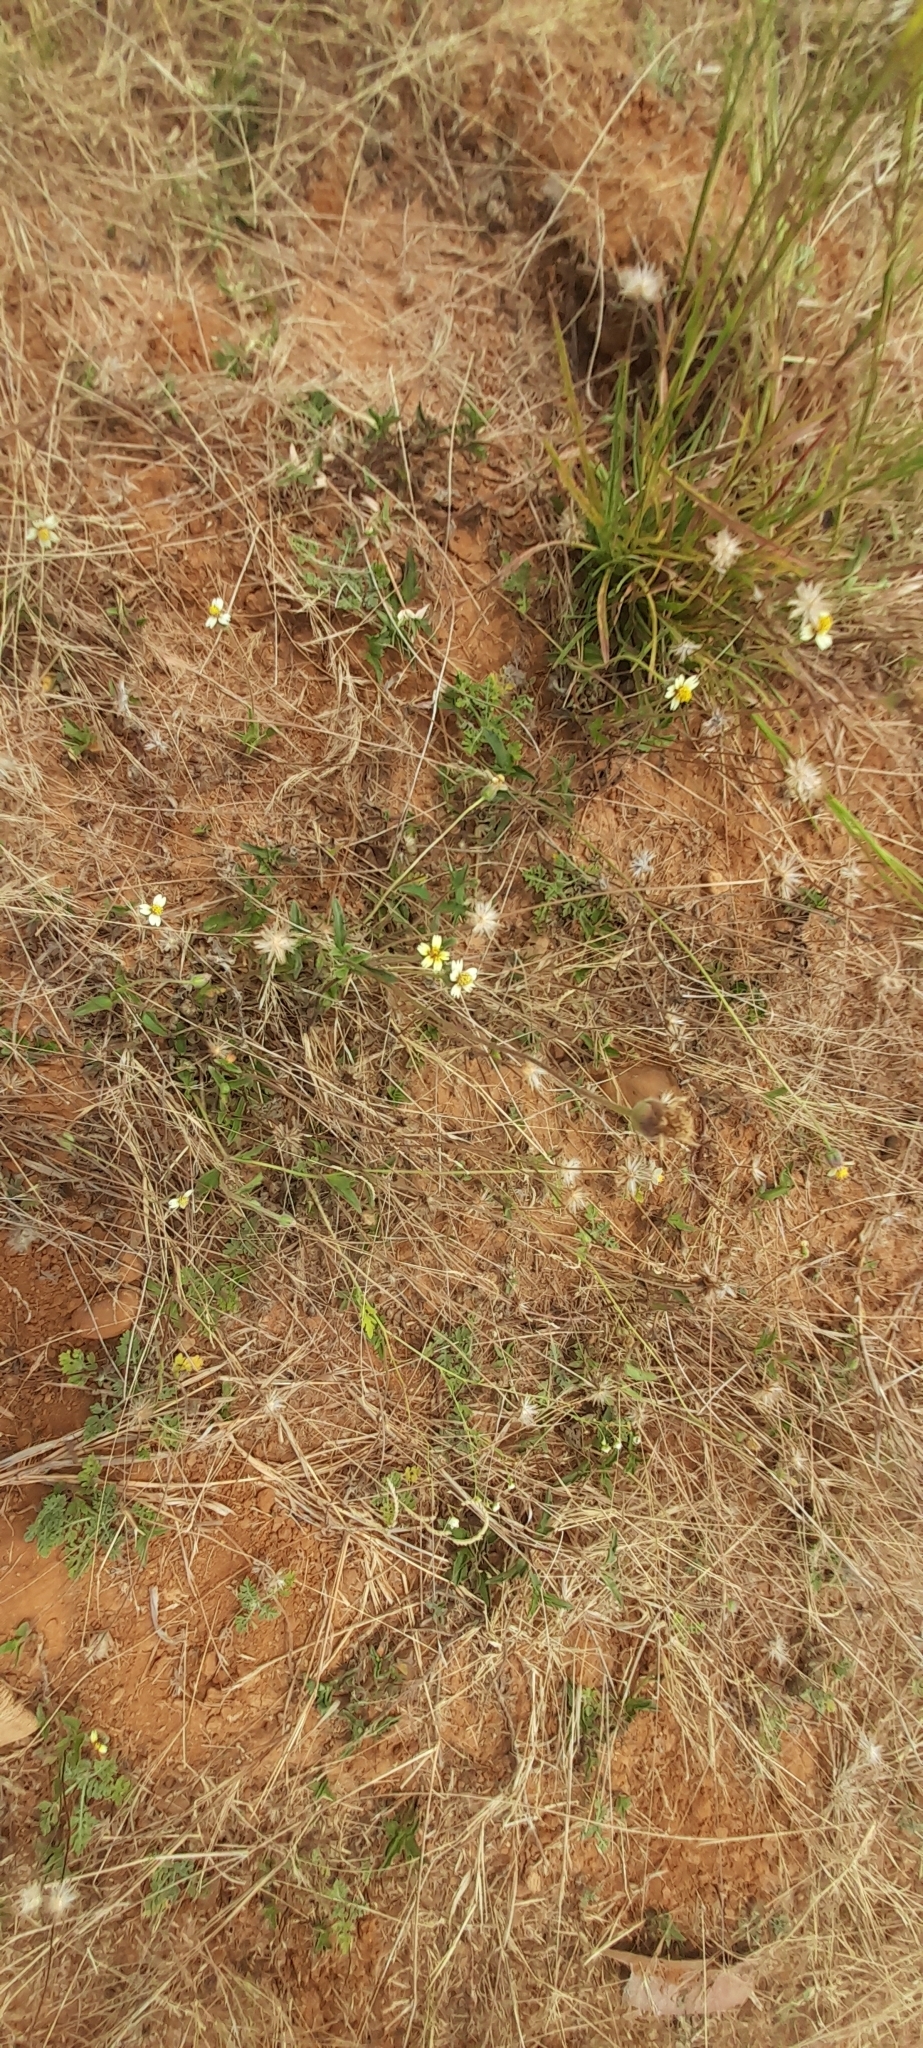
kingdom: Plantae
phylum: Tracheophyta
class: Magnoliopsida
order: Asterales
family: Asteraceae
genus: Tridax
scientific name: Tridax procumbens
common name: Coatbuttons
